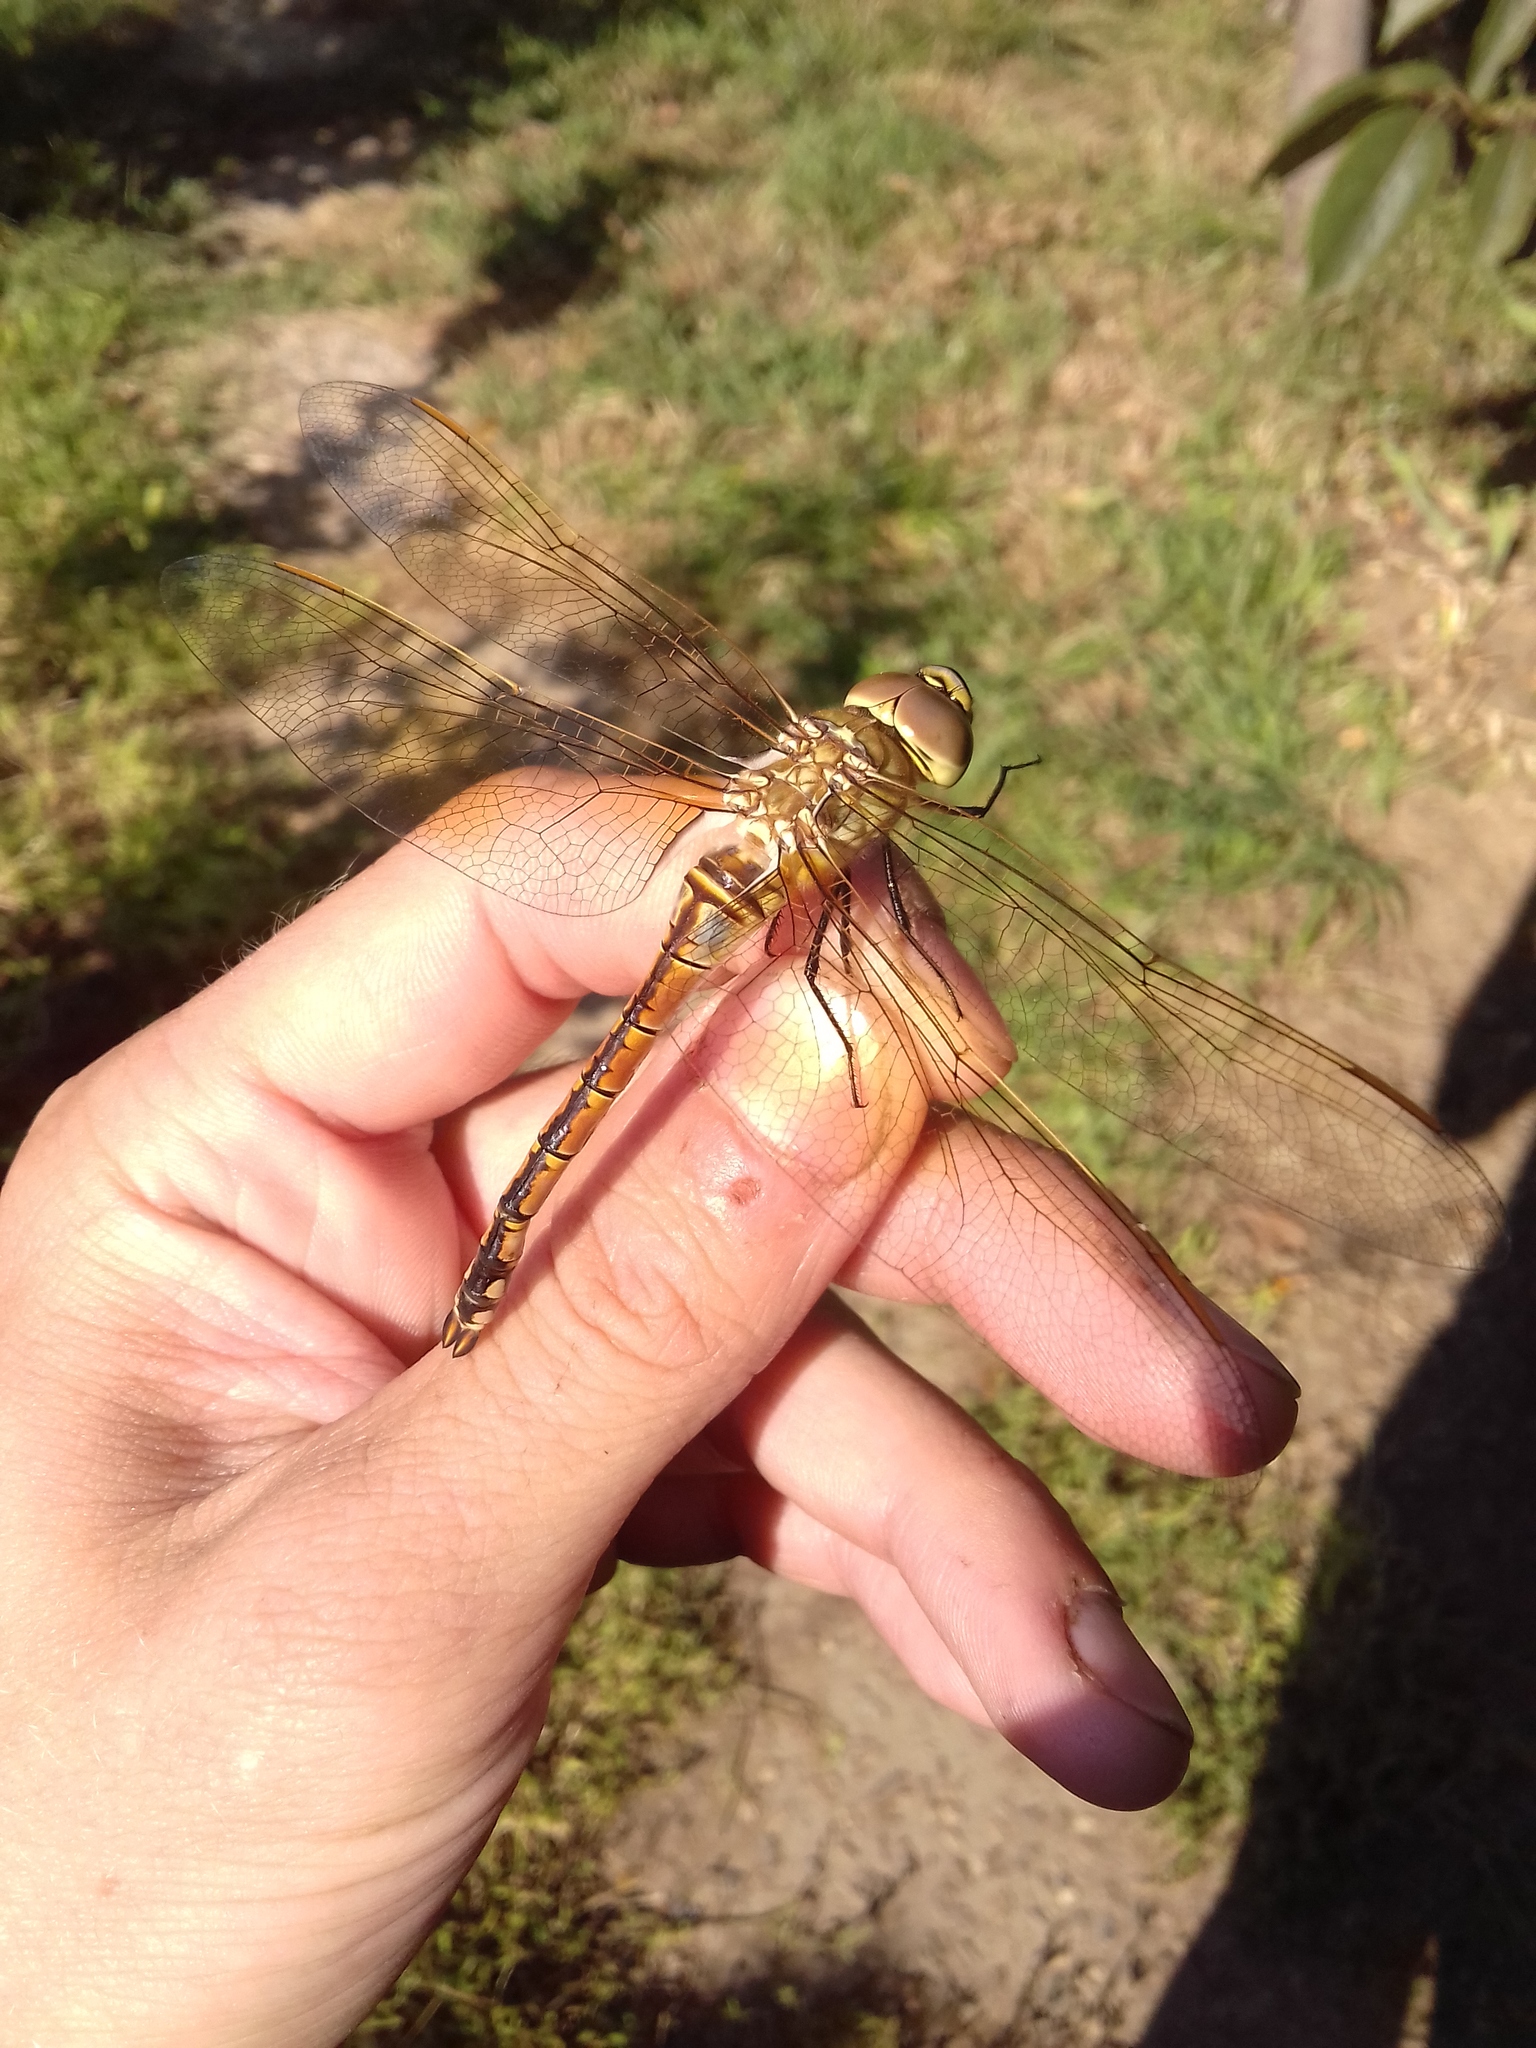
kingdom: Animalia
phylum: Arthropoda
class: Insecta
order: Odonata
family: Aeshnidae
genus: Anax
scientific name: Anax ephippiger
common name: Vagrant emperor
